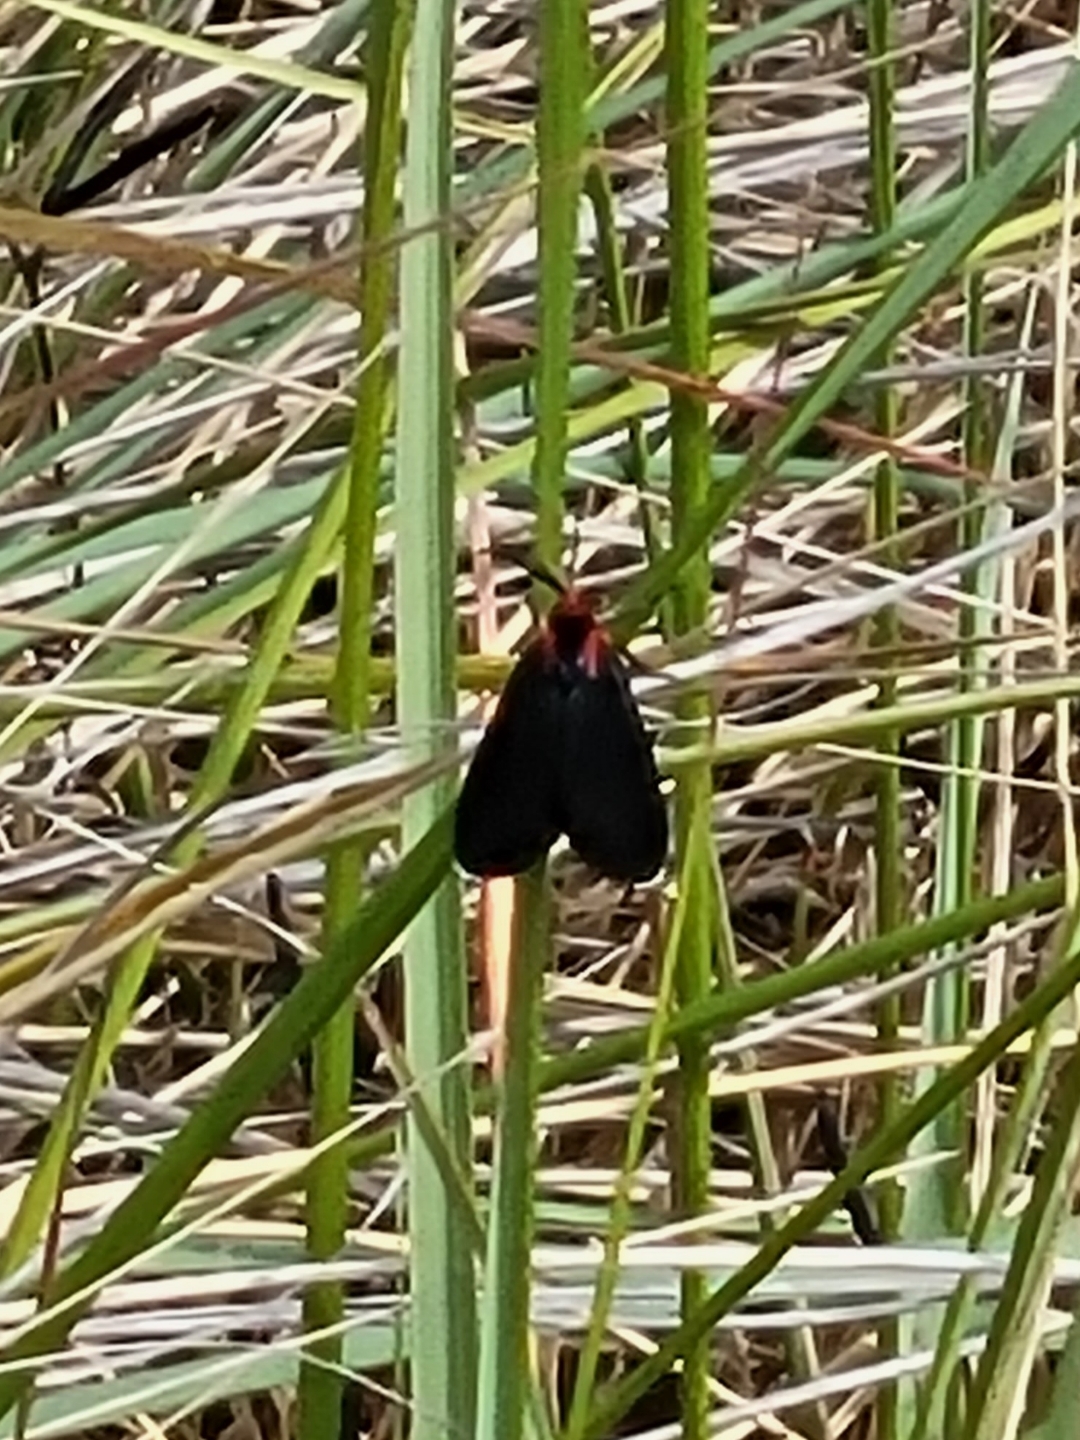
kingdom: Animalia
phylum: Arthropoda
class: Insecta
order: Lepidoptera
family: Erebidae
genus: Ctenucha
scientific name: Ctenucha rubroscapus
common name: Red-shouldered ctenucha
